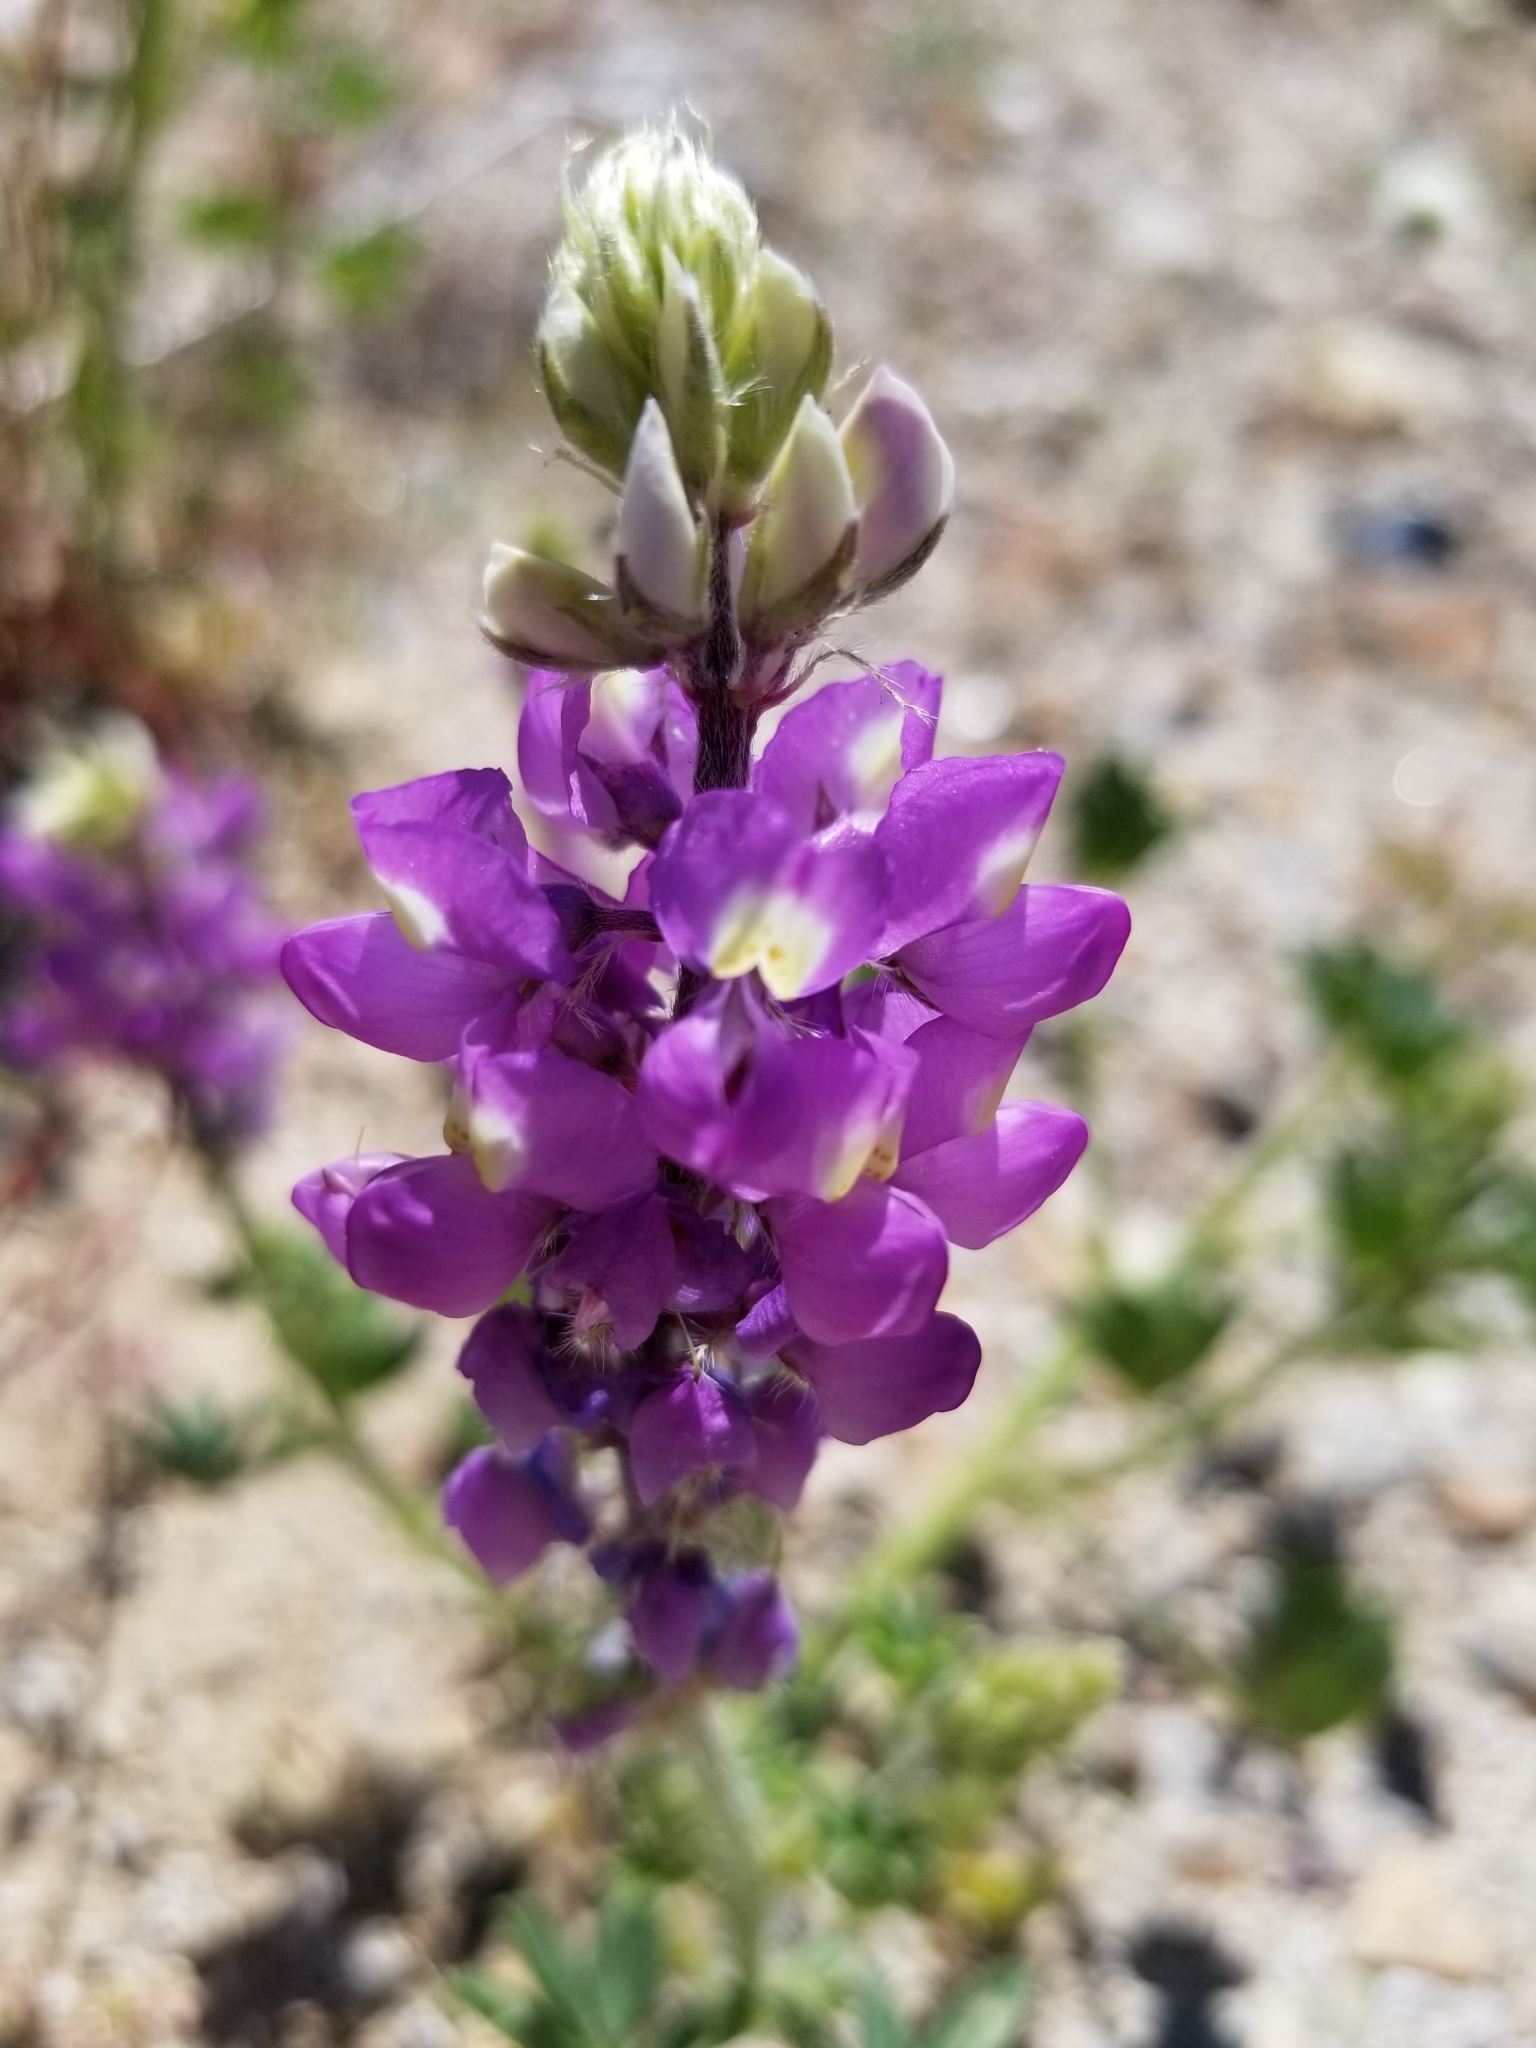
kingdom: Plantae
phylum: Tracheophyta
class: Magnoliopsida
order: Fabales
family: Fabaceae
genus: Lupinus
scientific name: Lupinus arizonicus
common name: Arizona lupine
